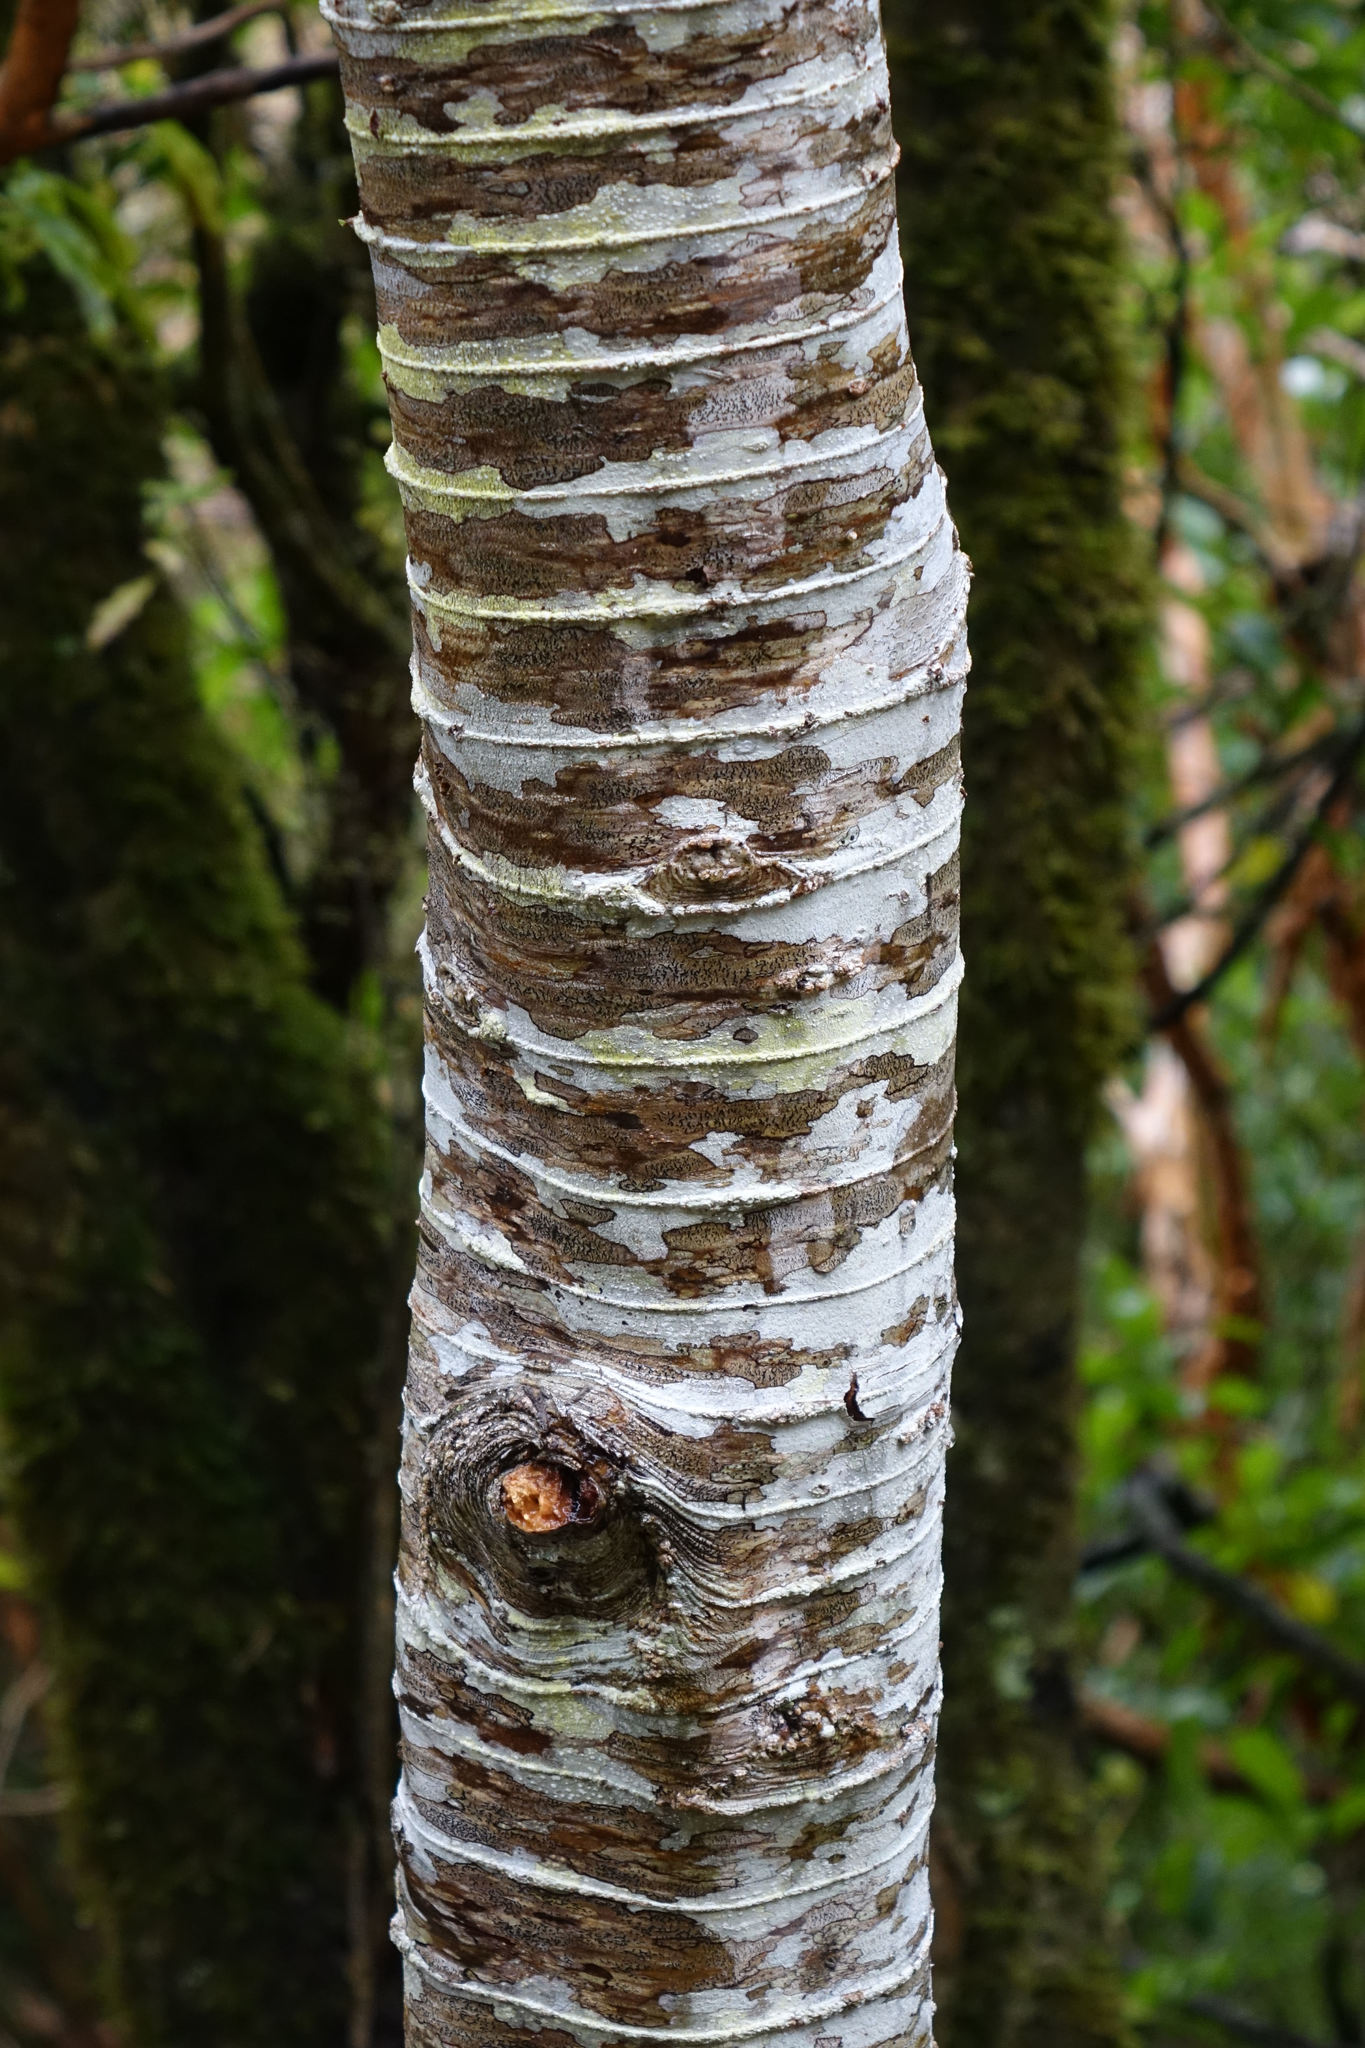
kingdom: Plantae
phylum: Tracheophyta
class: Magnoliopsida
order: Lamiales
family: Plantaginaceae
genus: Veronica
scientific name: Veronica salicifolia
